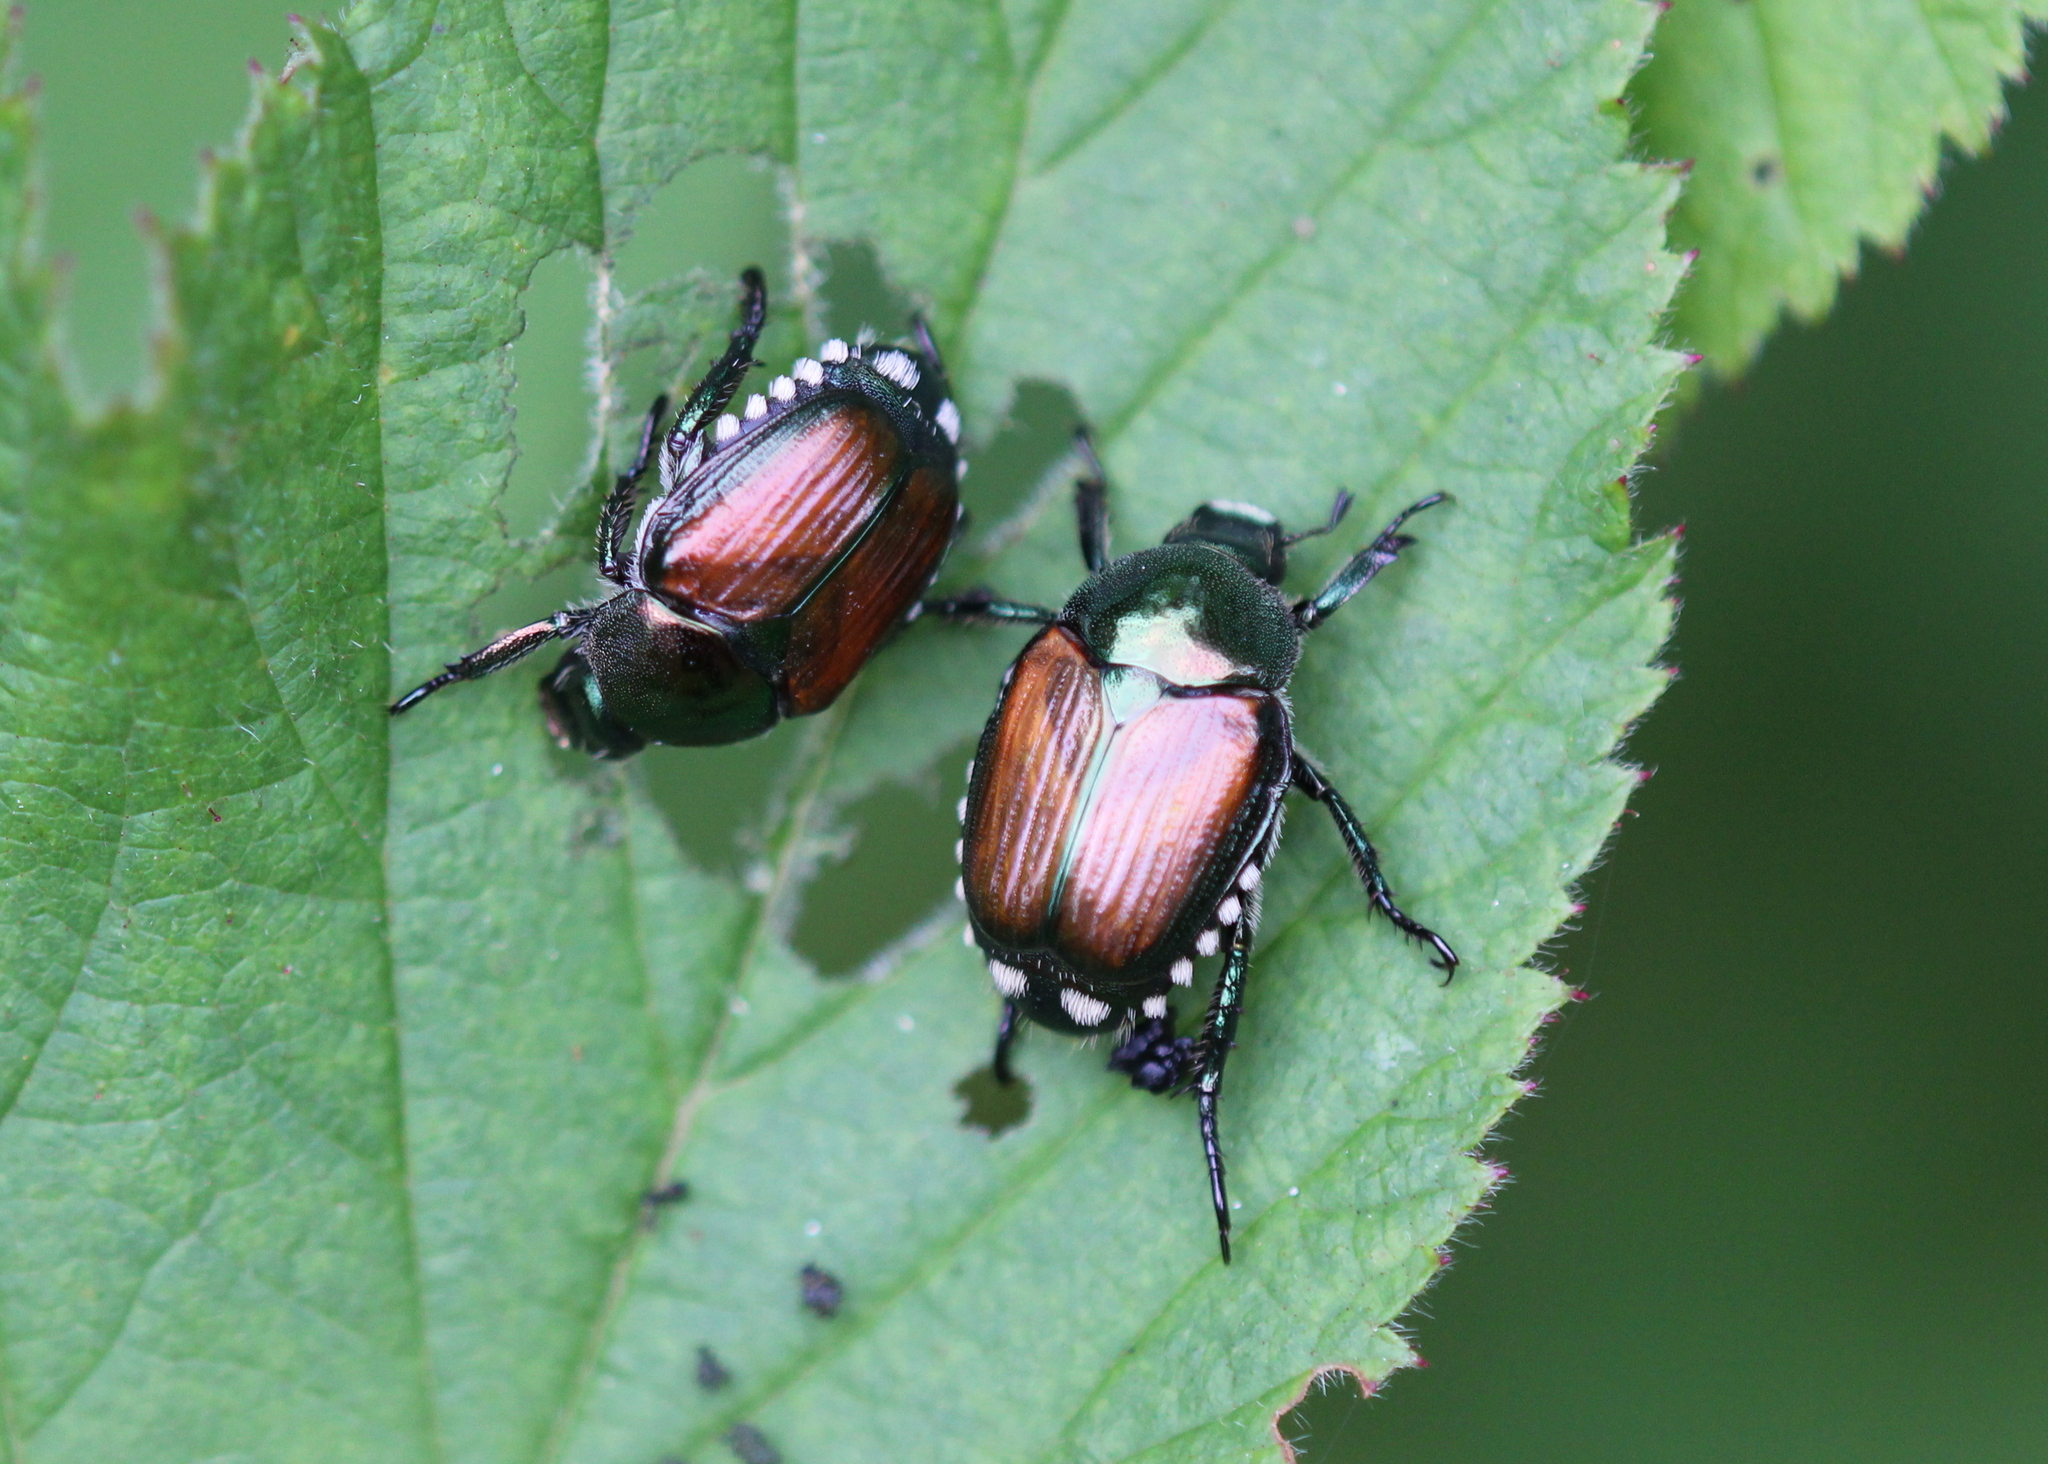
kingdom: Animalia
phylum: Arthropoda
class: Insecta
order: Coleoptera
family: Scarabaeidae
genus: Popillia
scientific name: Popillia japonica
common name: Japanese beetle
